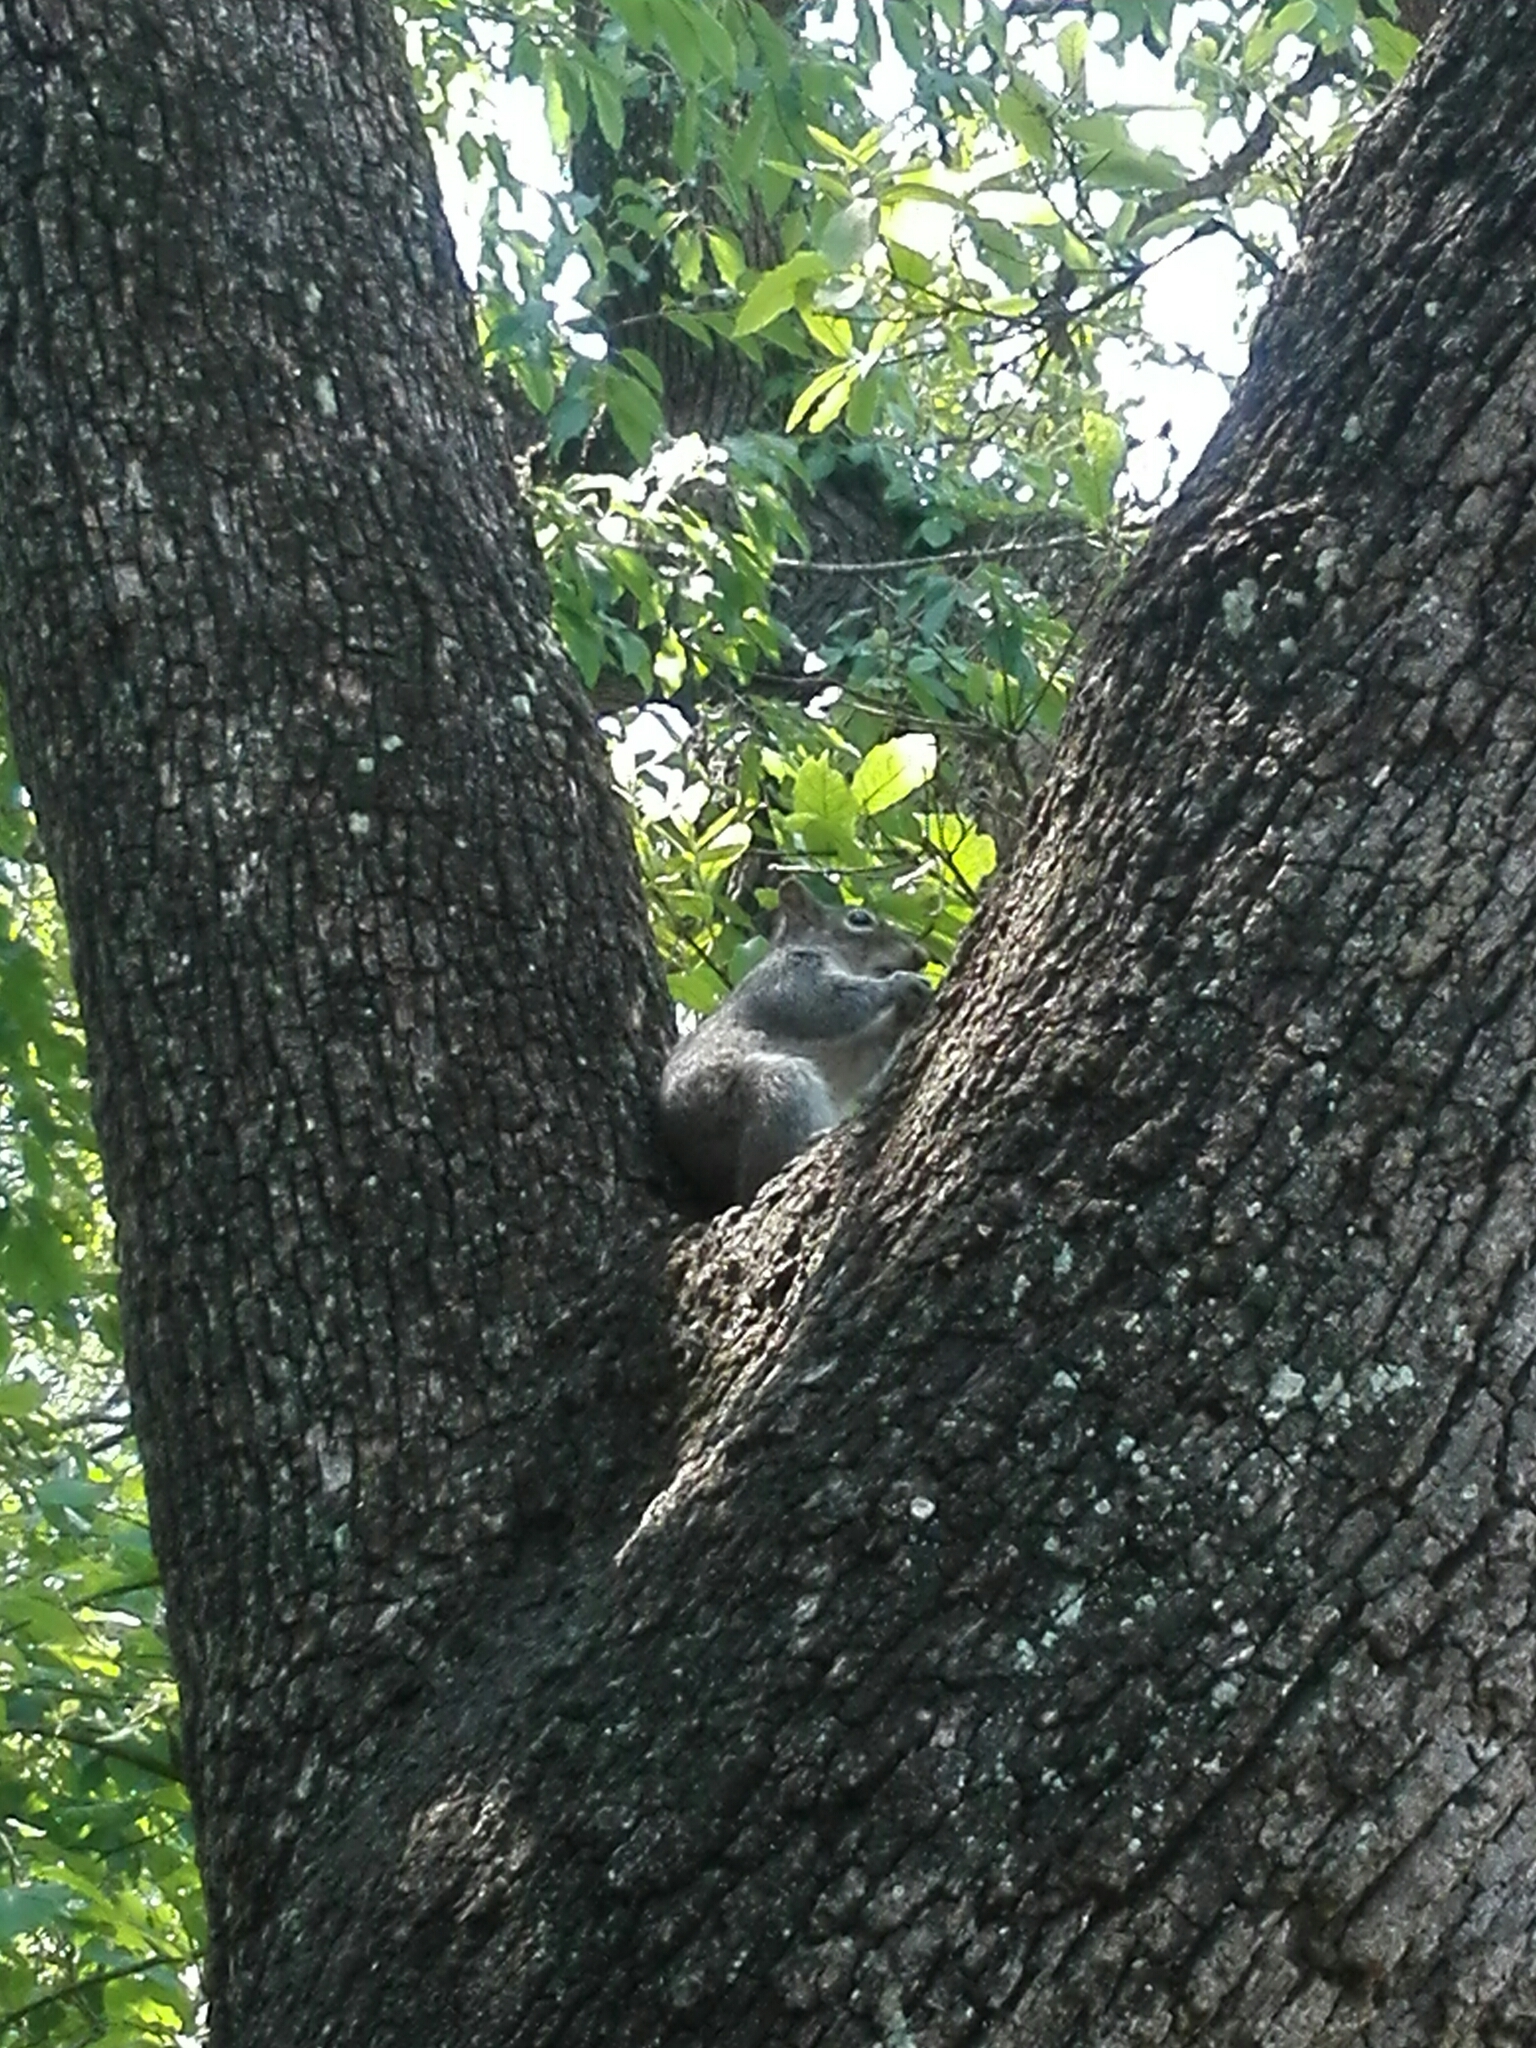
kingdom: Animalia
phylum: Chordata
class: Mammalia
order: Rodentia
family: Sciuridae
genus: Sciurus
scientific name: Sciurus alleni
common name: Allen's squirrel
